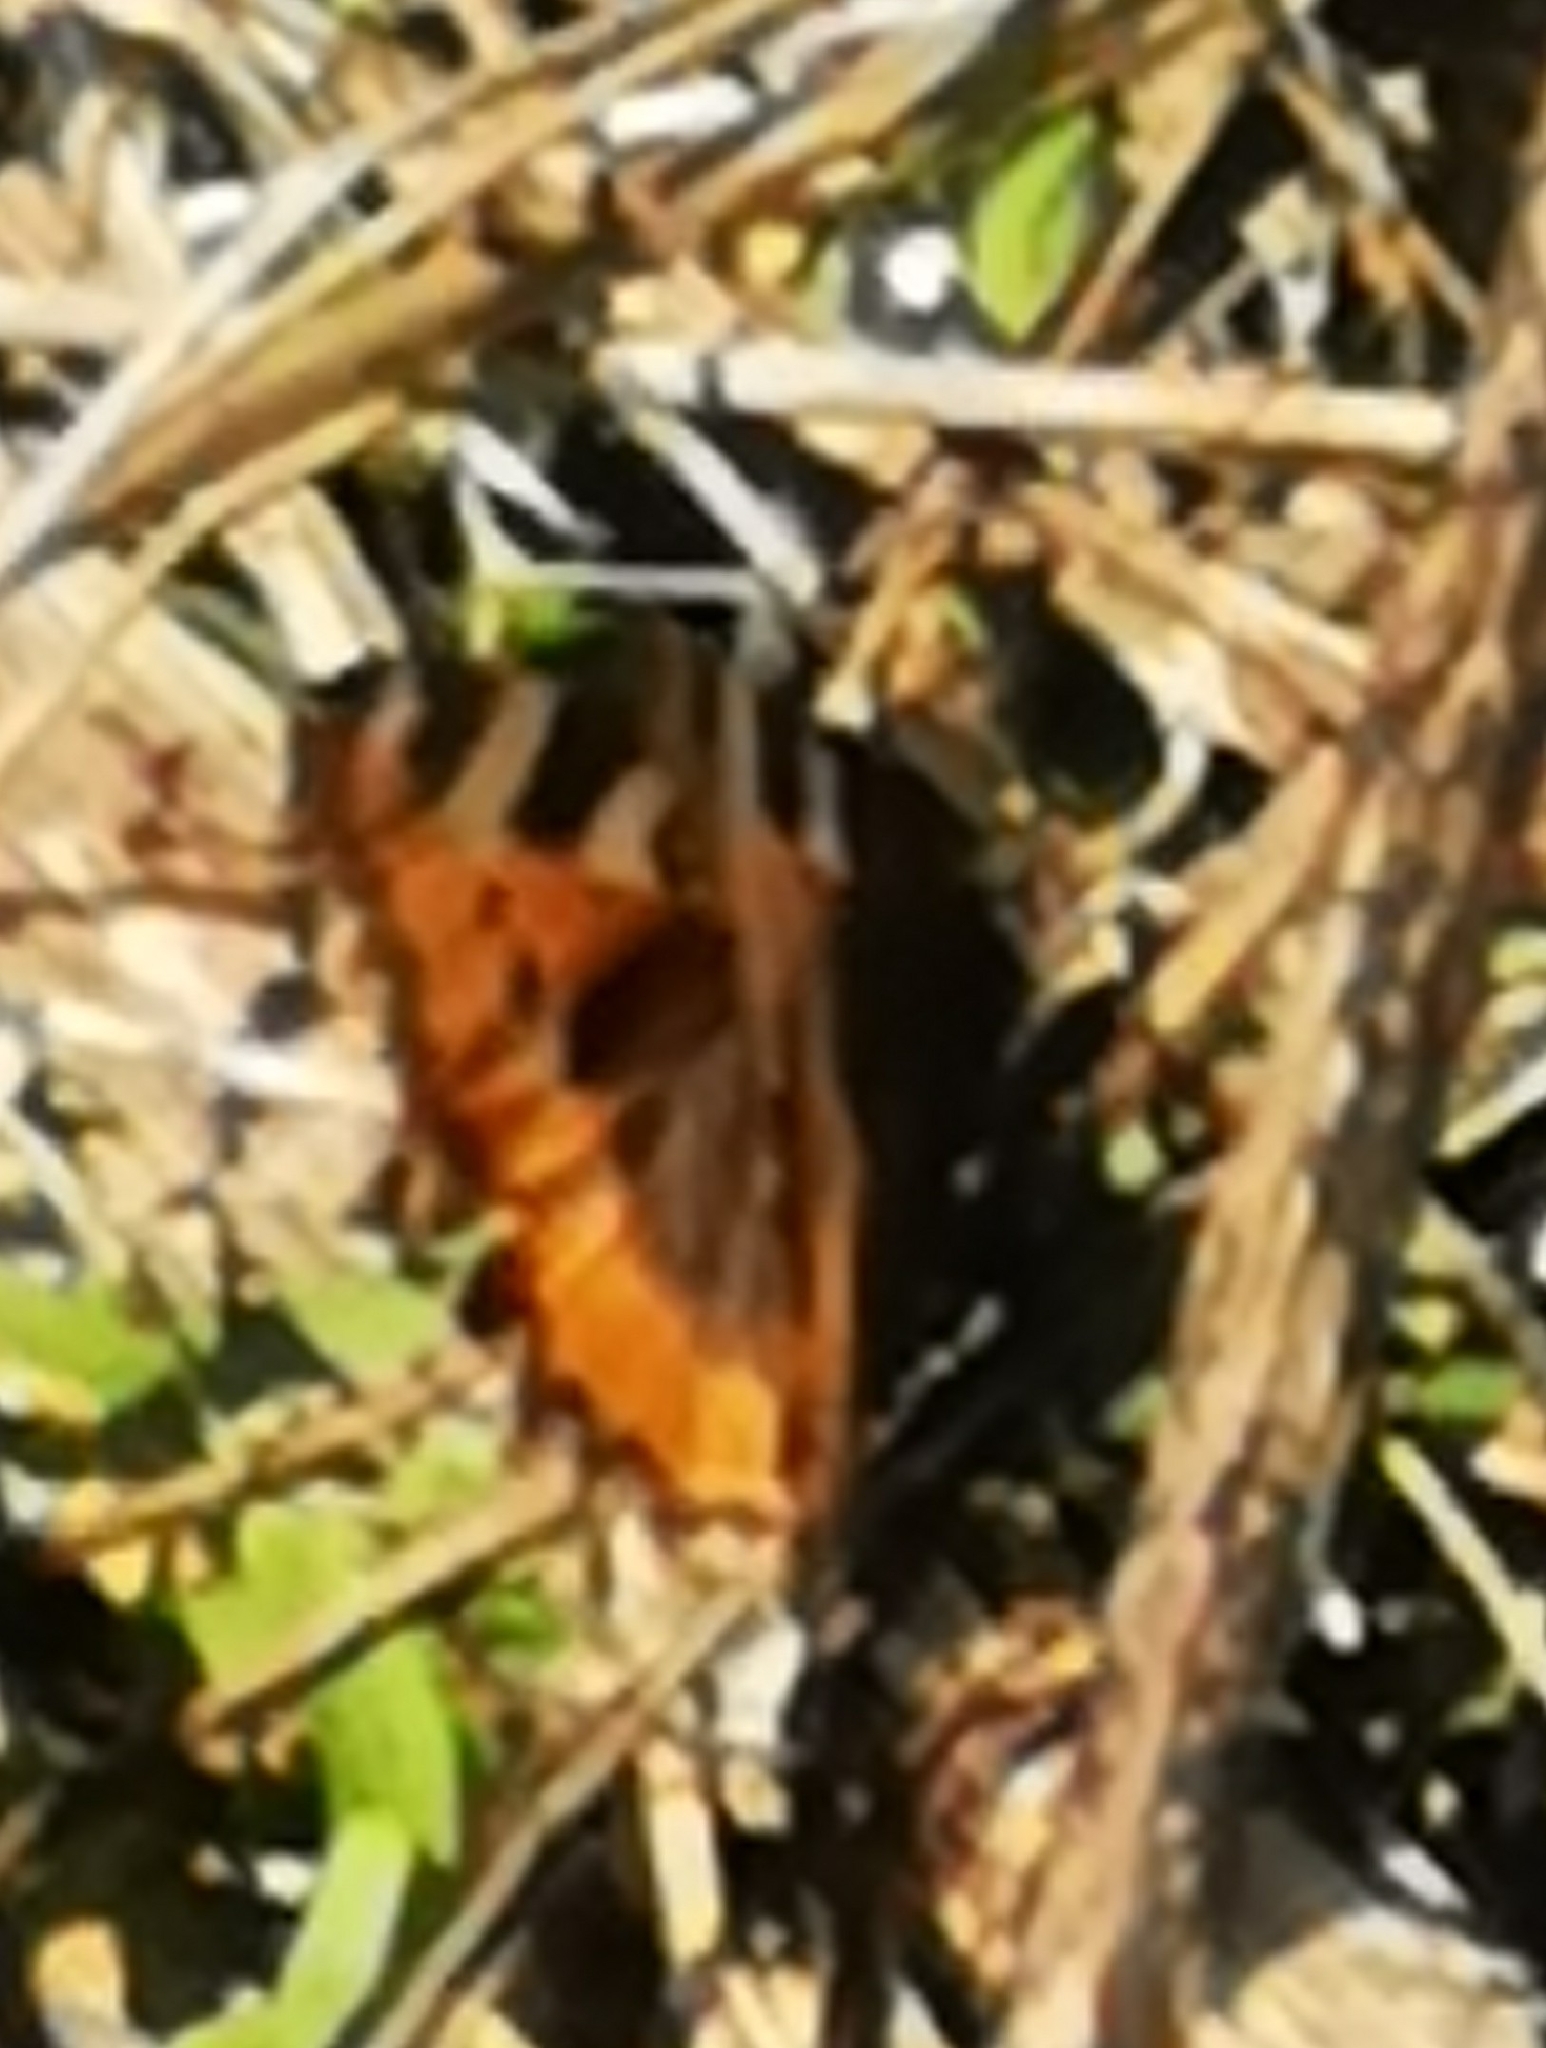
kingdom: Animalia
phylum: Arthropoda
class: Insecta
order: Lepidoptera
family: Nymphalidae
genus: Aglais
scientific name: Aglais urticae
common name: Small tortoiseshell
